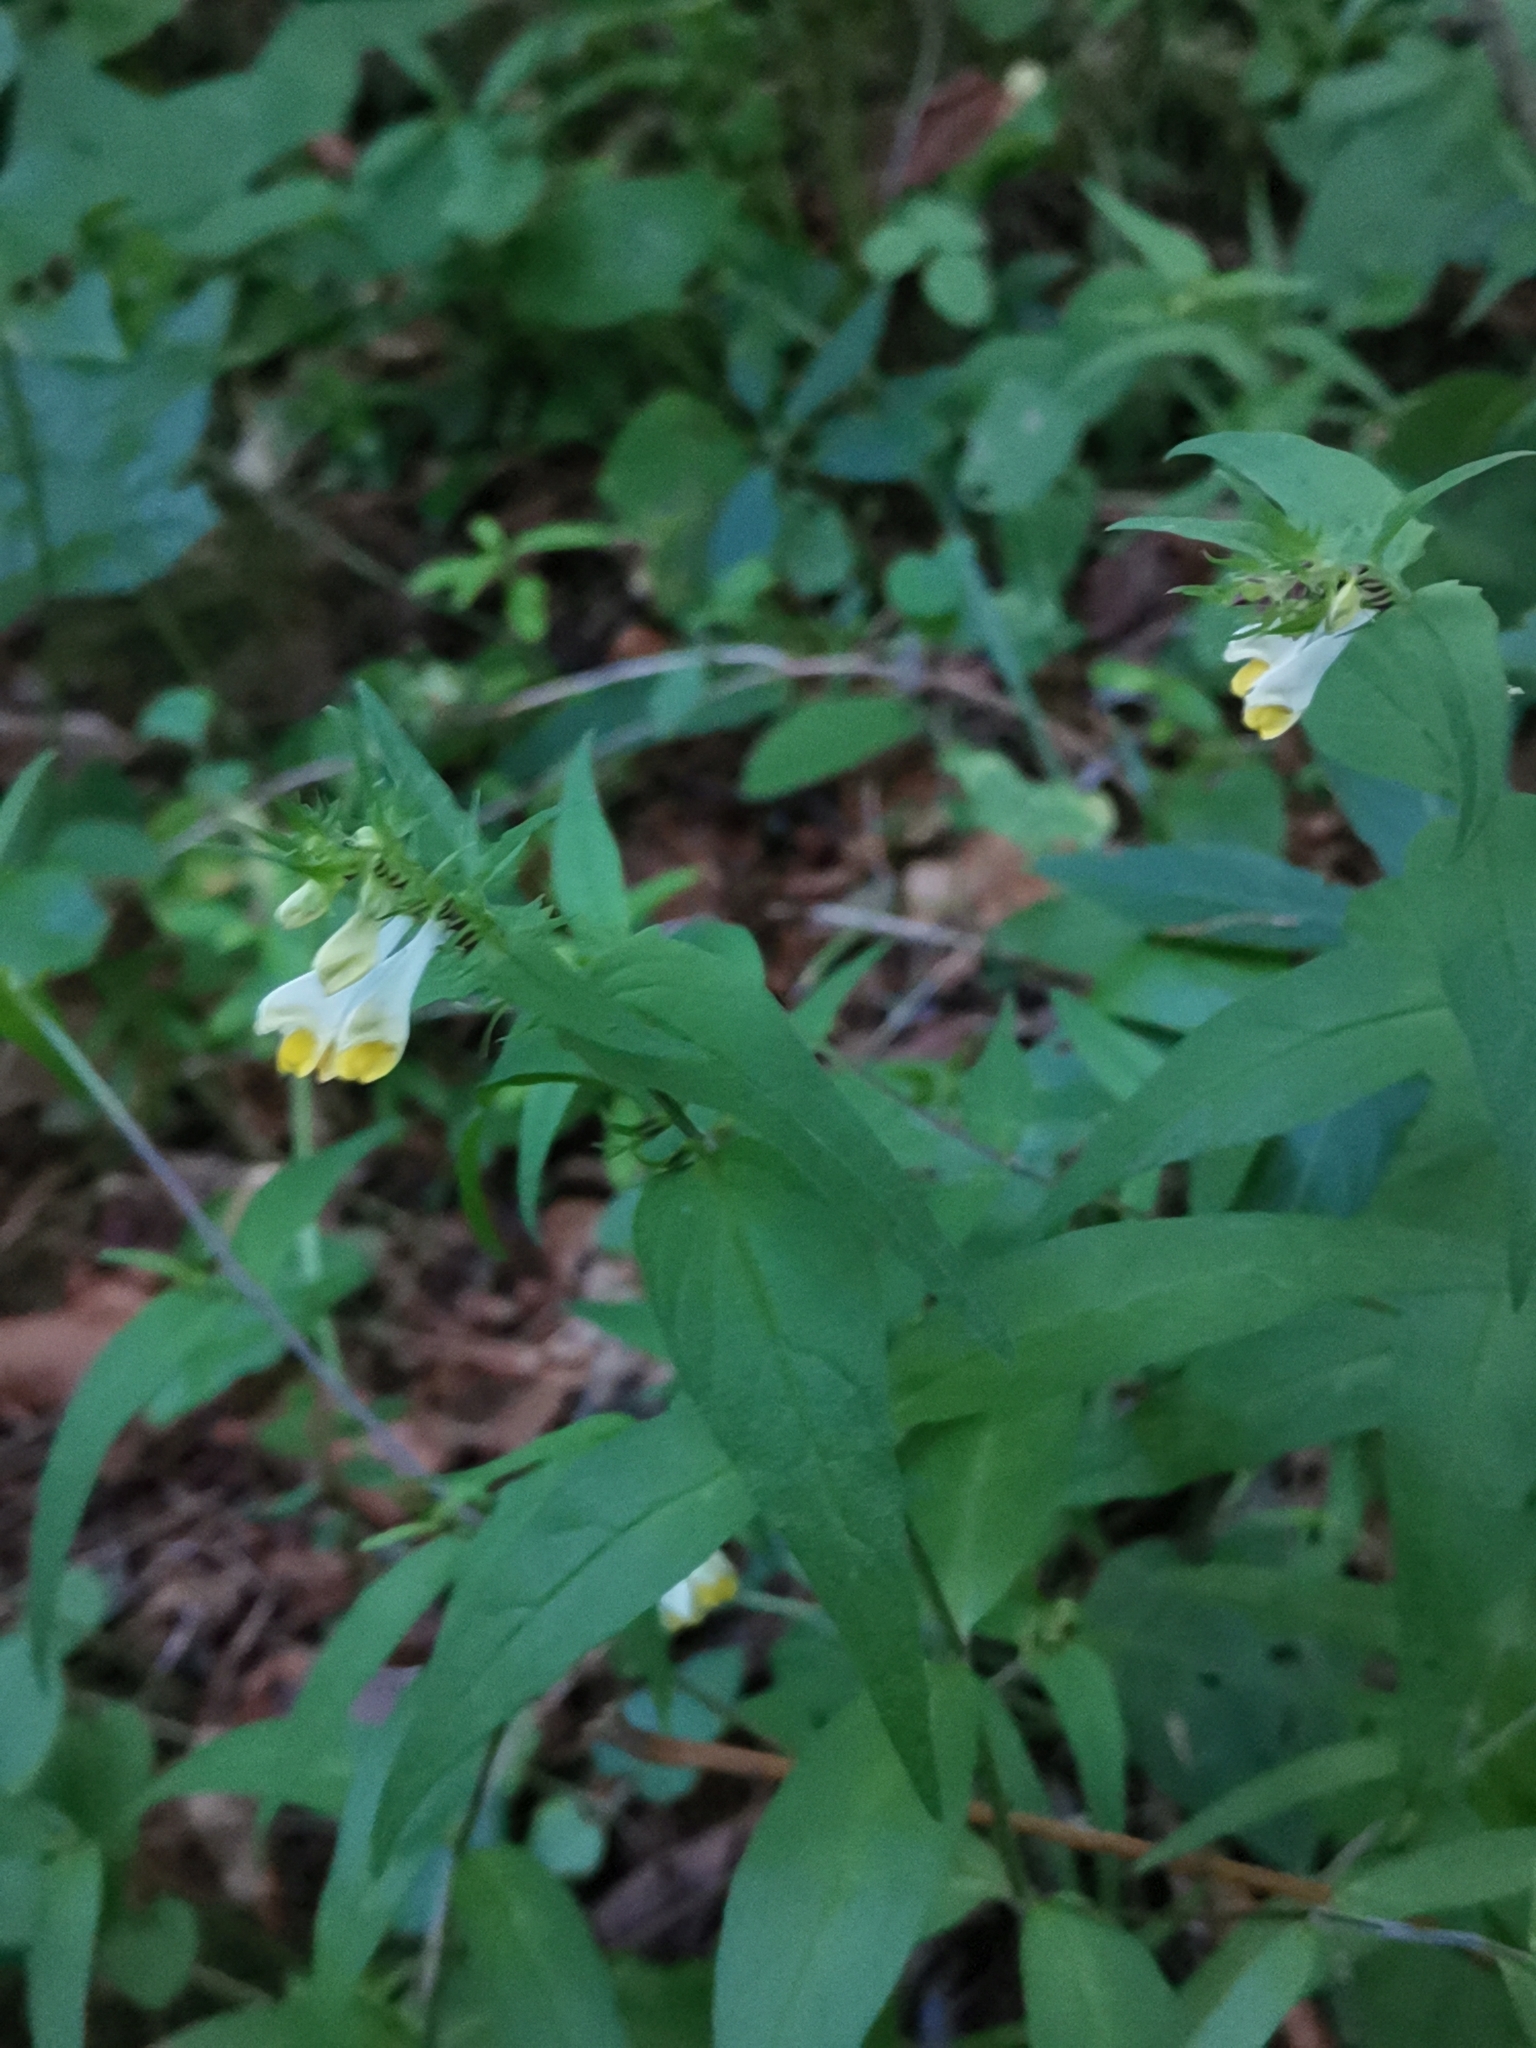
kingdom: Plantae
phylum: Tracheophyta
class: Magnoliopsida
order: Lamiales
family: Orobanchaceae
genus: Melampyrum
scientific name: Melampyrum pratense
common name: Common cow-wheat
